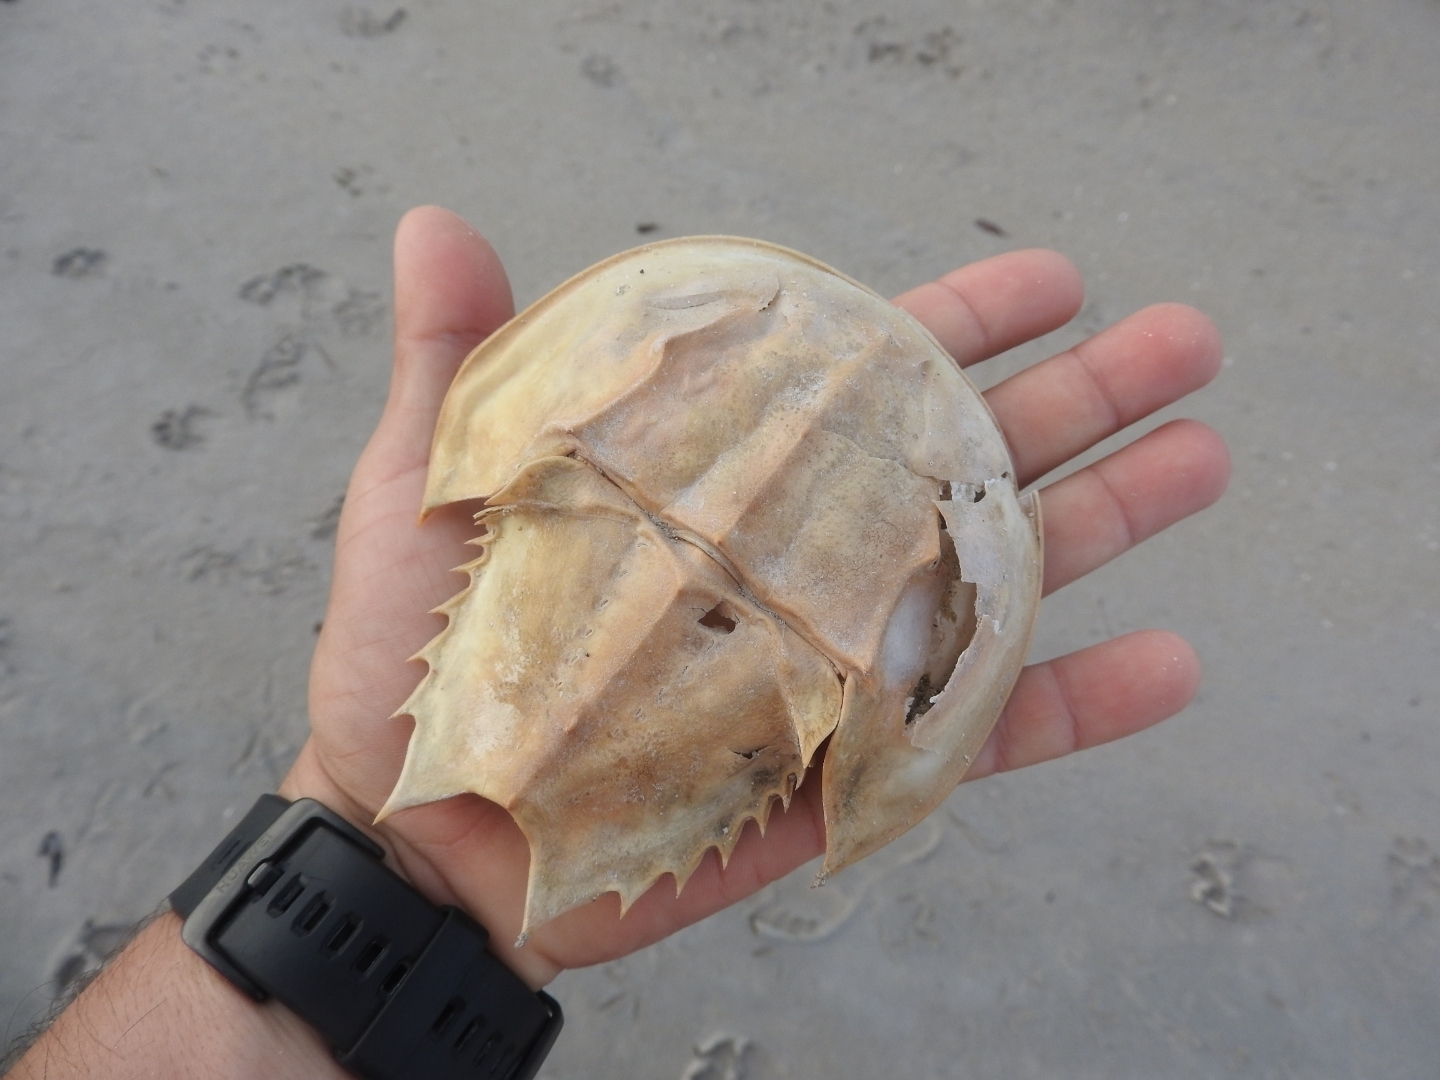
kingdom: Animalia
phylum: Arthropoda
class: Merostomata
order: Xiphosurida
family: Limulidae
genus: Limulus
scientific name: Limulus polyphemus
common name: Horseshoe crab
